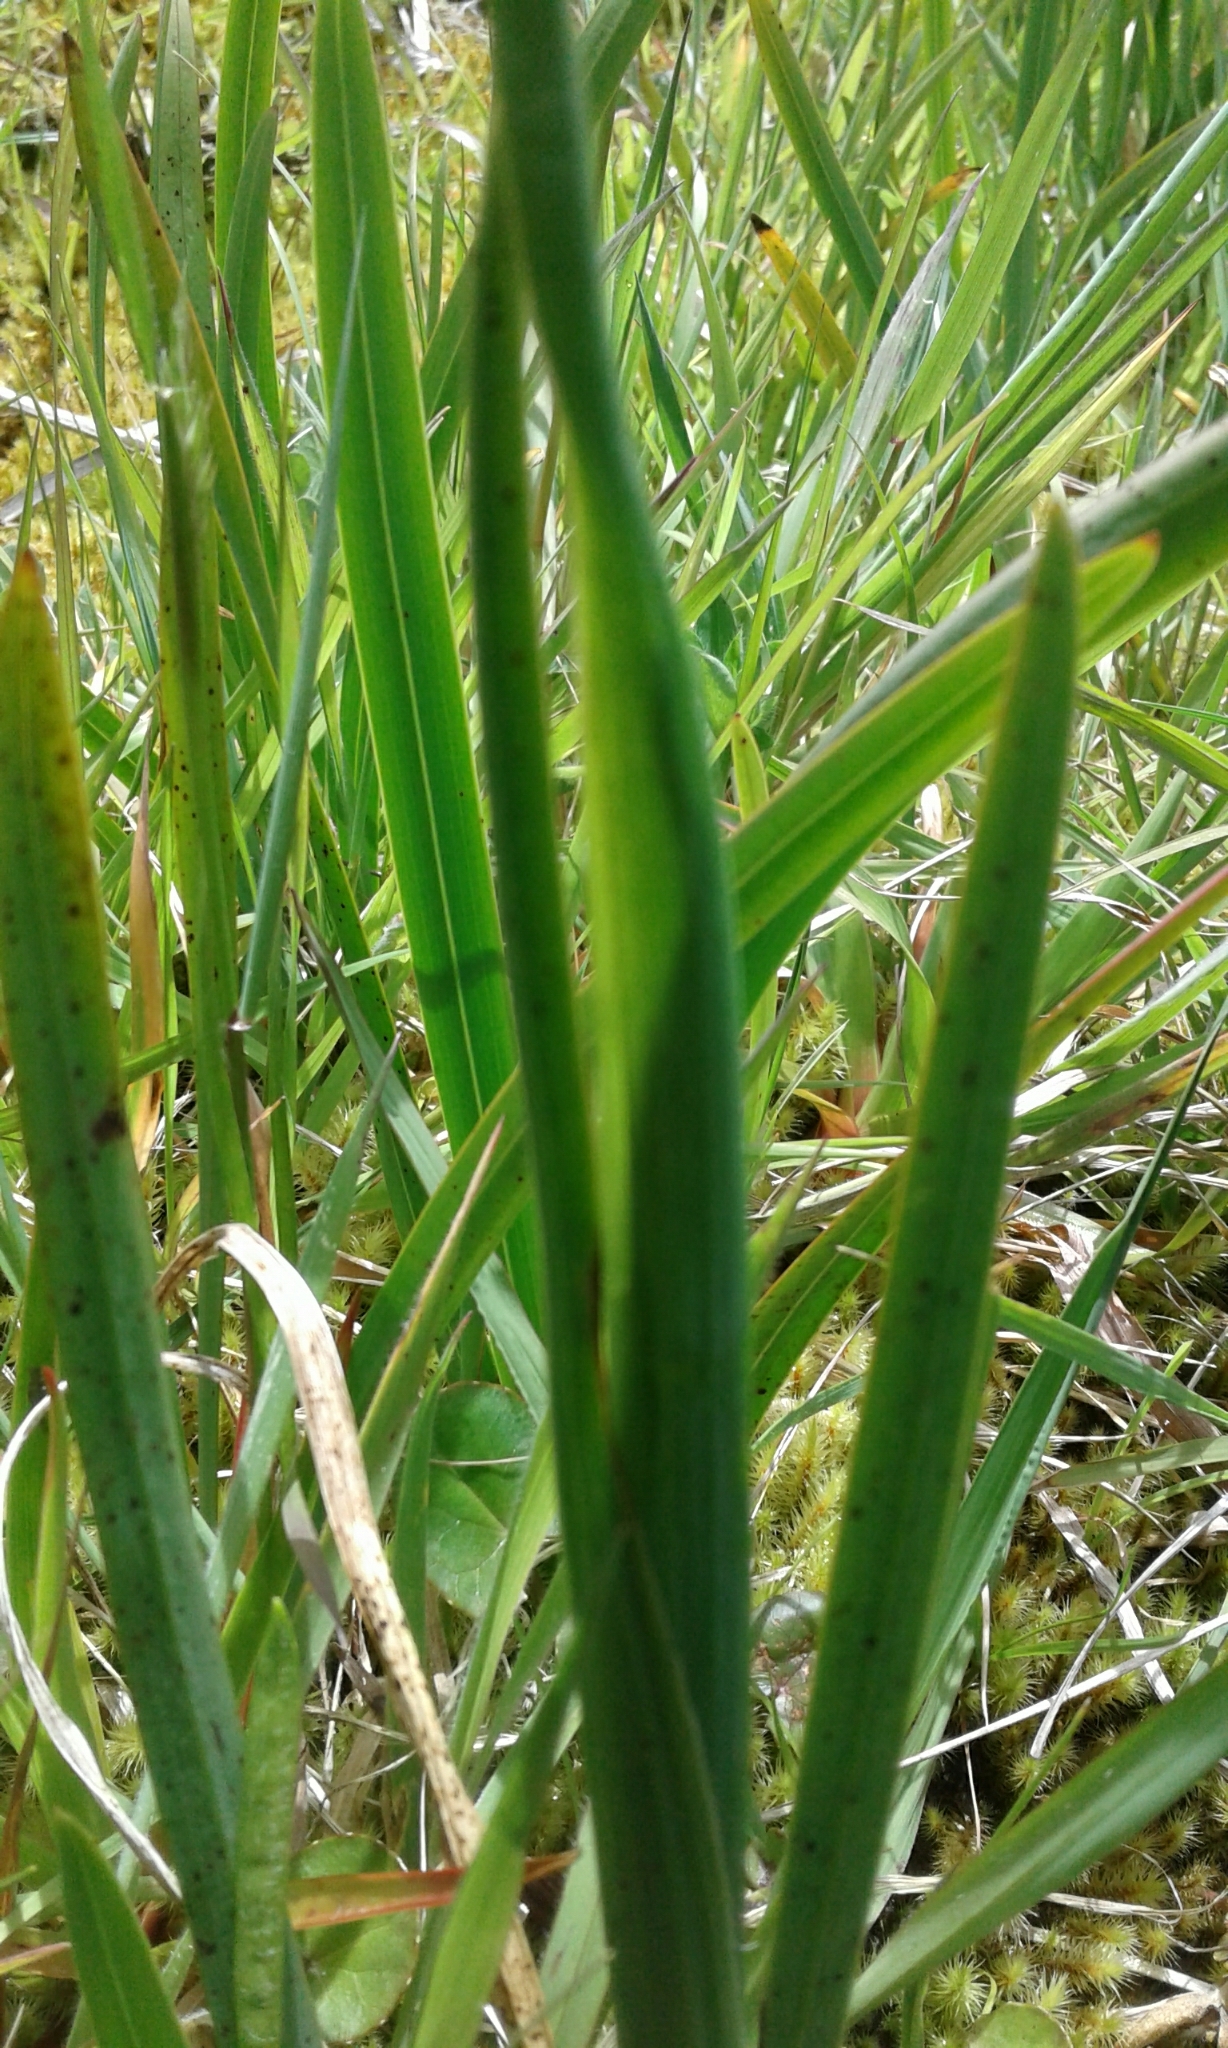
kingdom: Plantae
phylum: Tracheophyta
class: Liliopsida
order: Asparagales
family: Iridaceae
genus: Hesperantha
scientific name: Hesperantha coccinea
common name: River-lily
